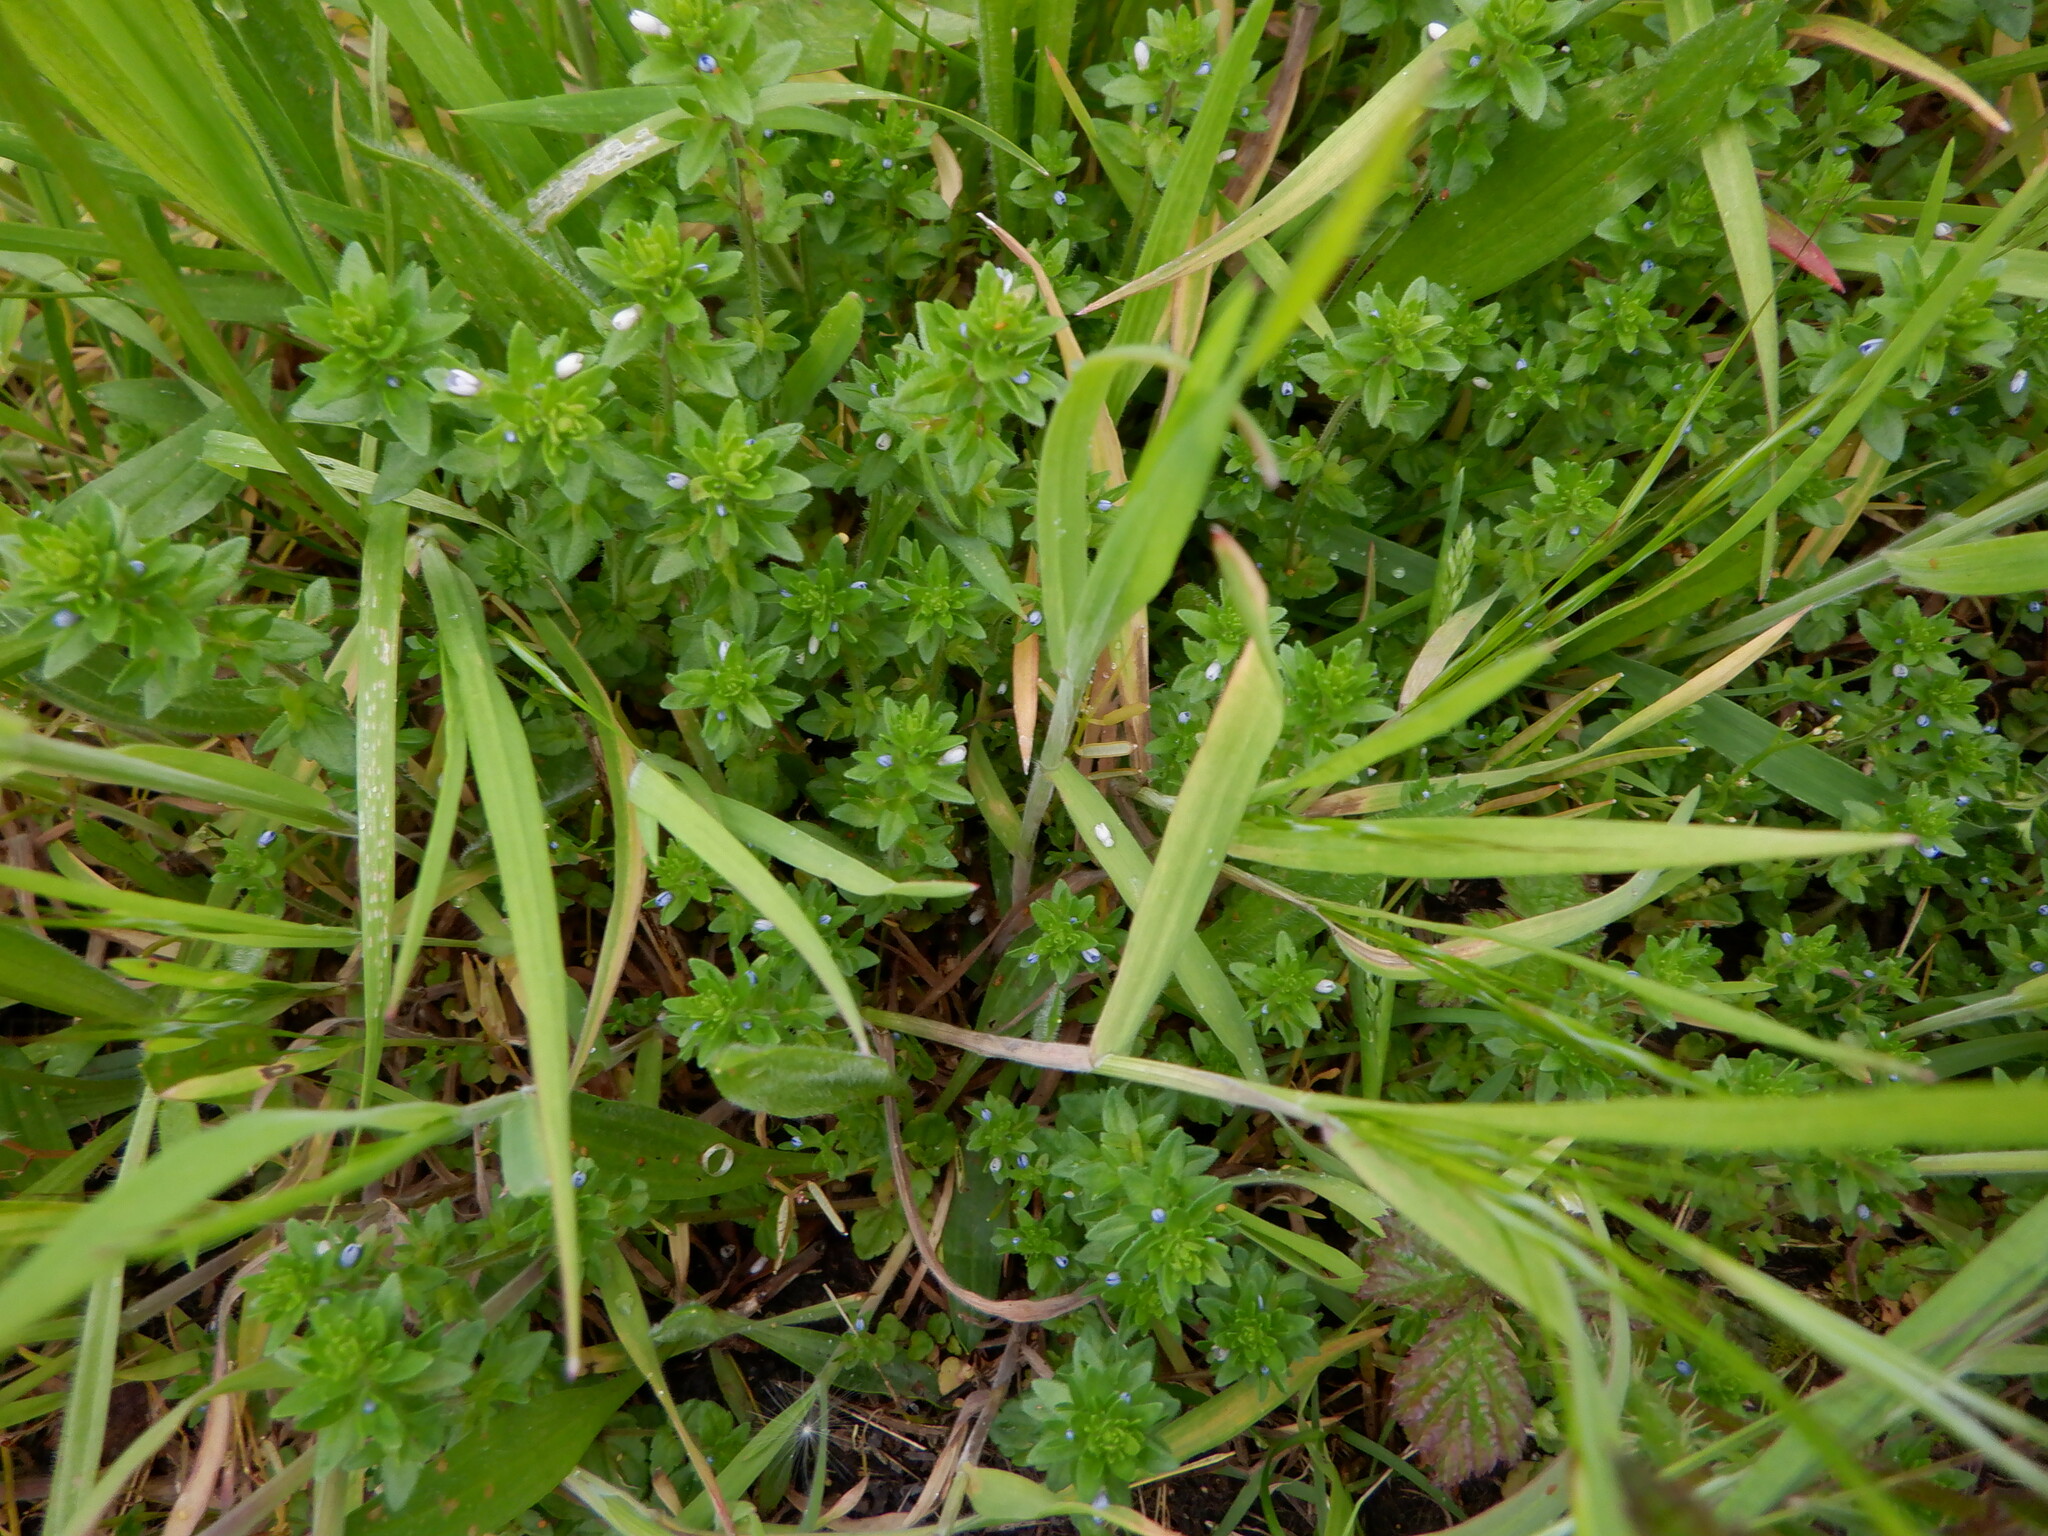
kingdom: Plantae
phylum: Tracheophyta
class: Magnoliopsida
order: Lamiales
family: Plantaginaceae
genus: Veronica
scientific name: Veronica arvensis
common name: Corn speedwell
